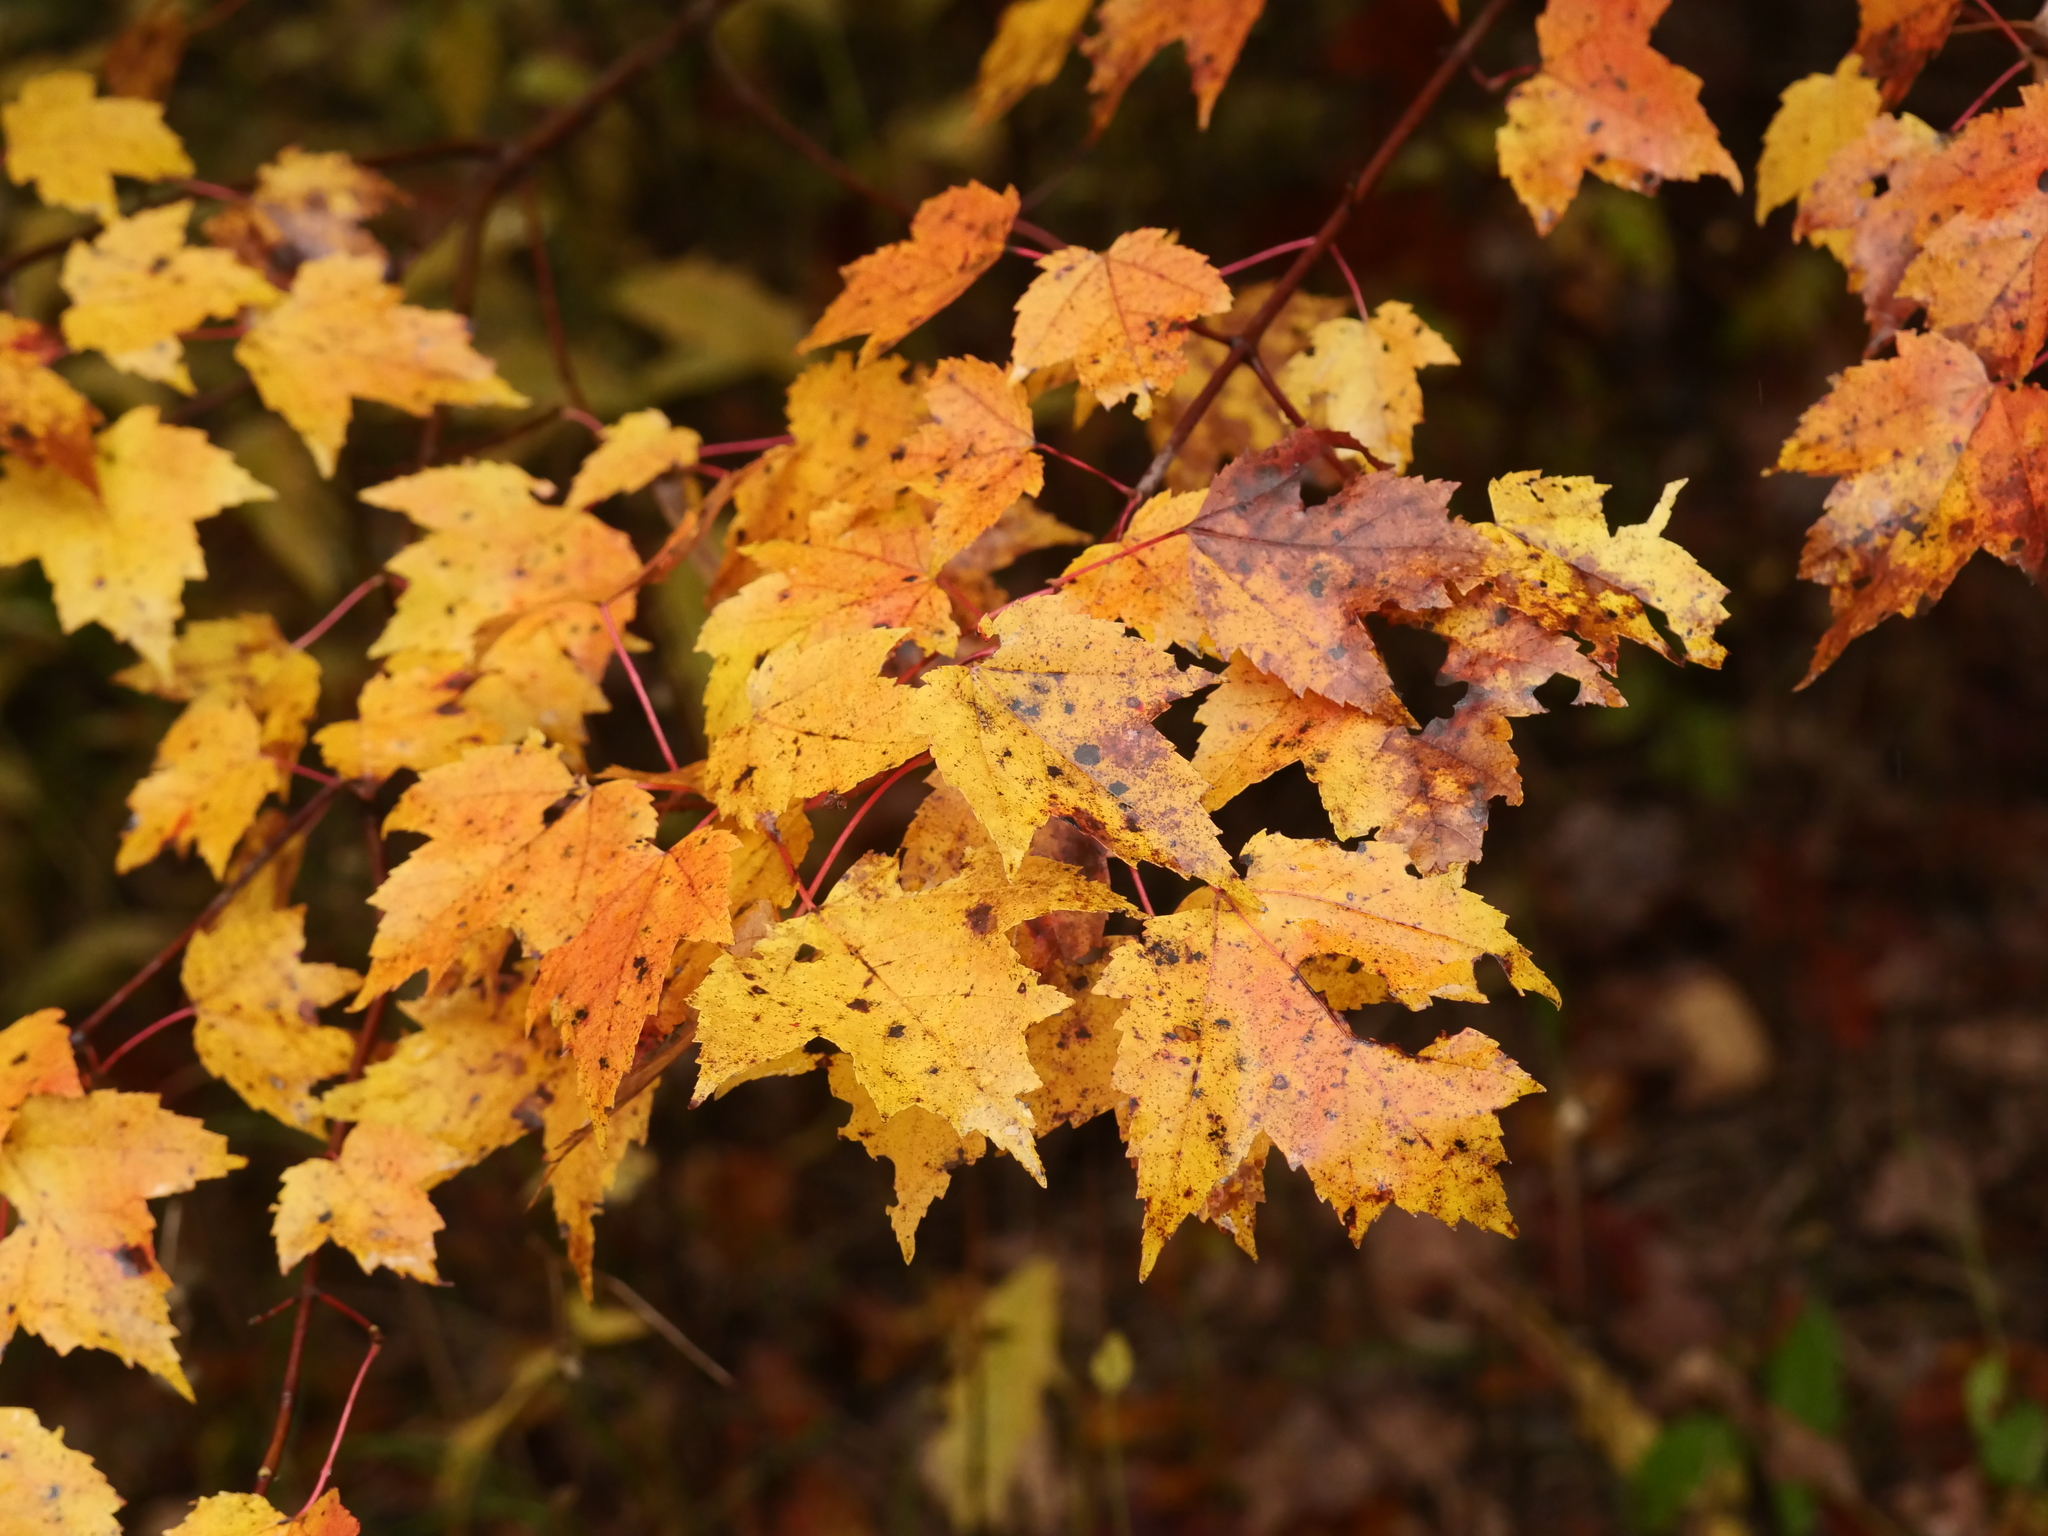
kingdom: Plantae
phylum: Tracheophyta
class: Magnoliopsida
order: Sapindales
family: Sapindaceae
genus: Acer
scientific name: Acer rubrum
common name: Red maple
